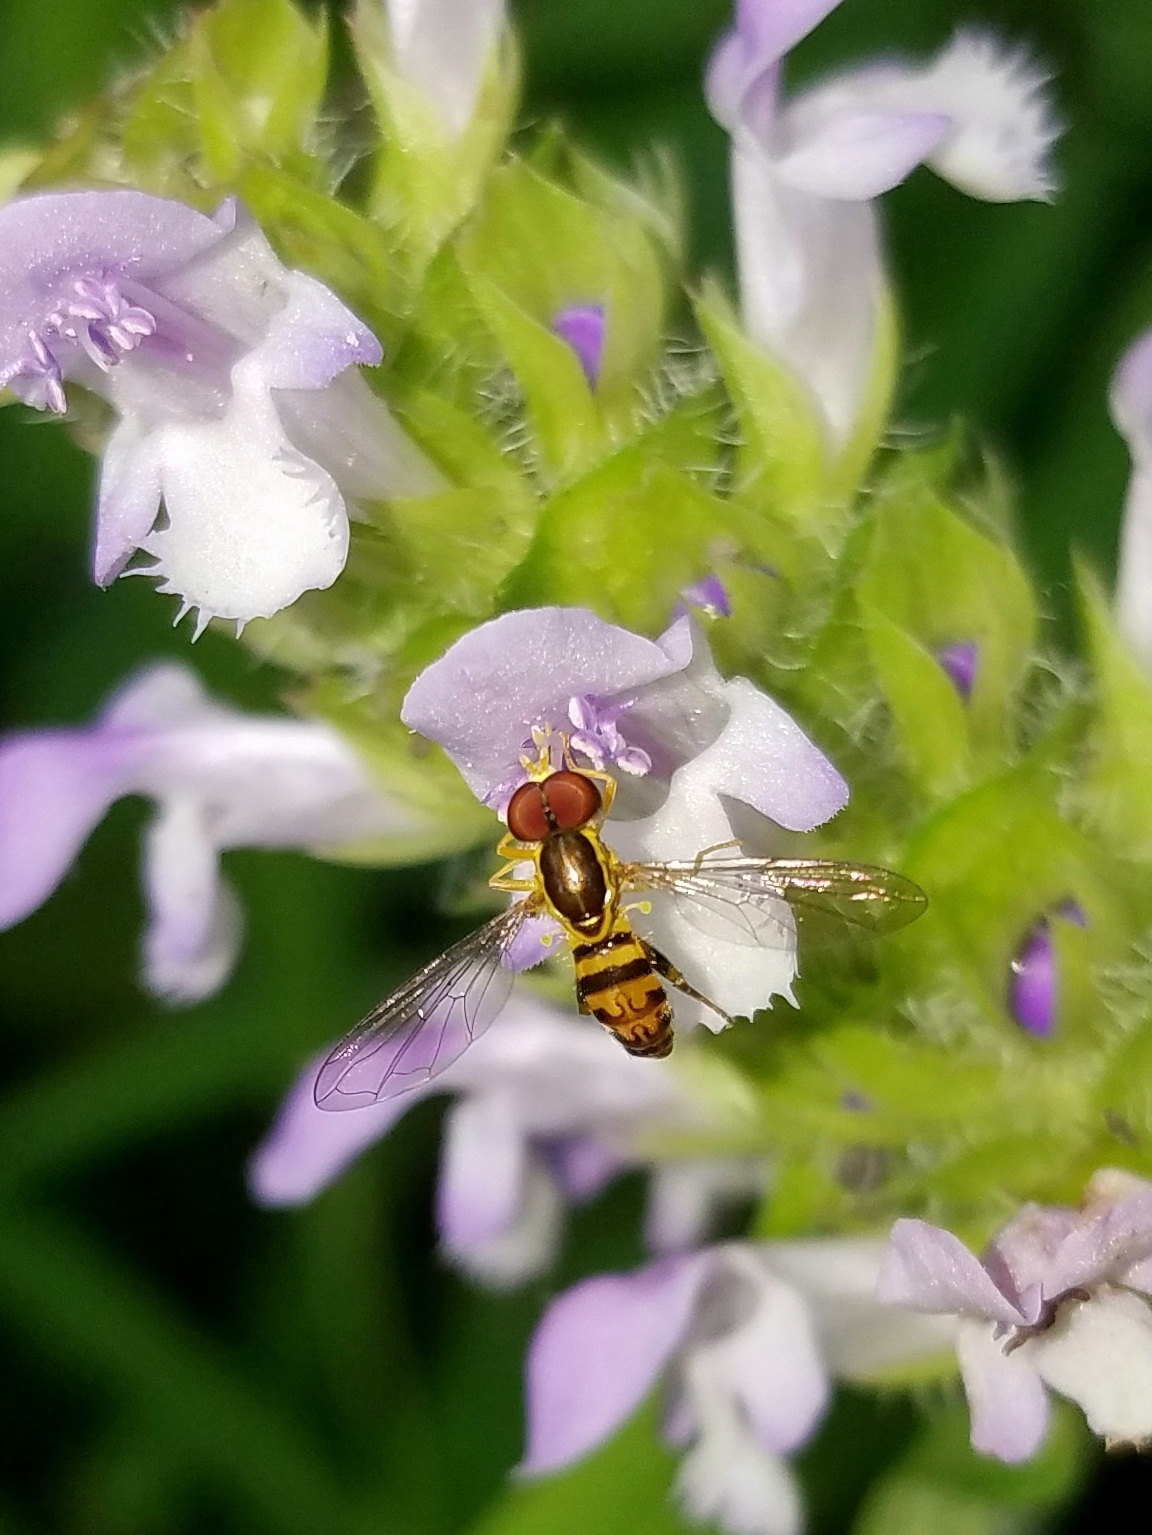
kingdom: Animalia
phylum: Arthropoda
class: Insecta
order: Diptera
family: Syrphidae
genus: Toxomerus
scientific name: Toxomerus geminatus
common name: Eastern calligrapher
